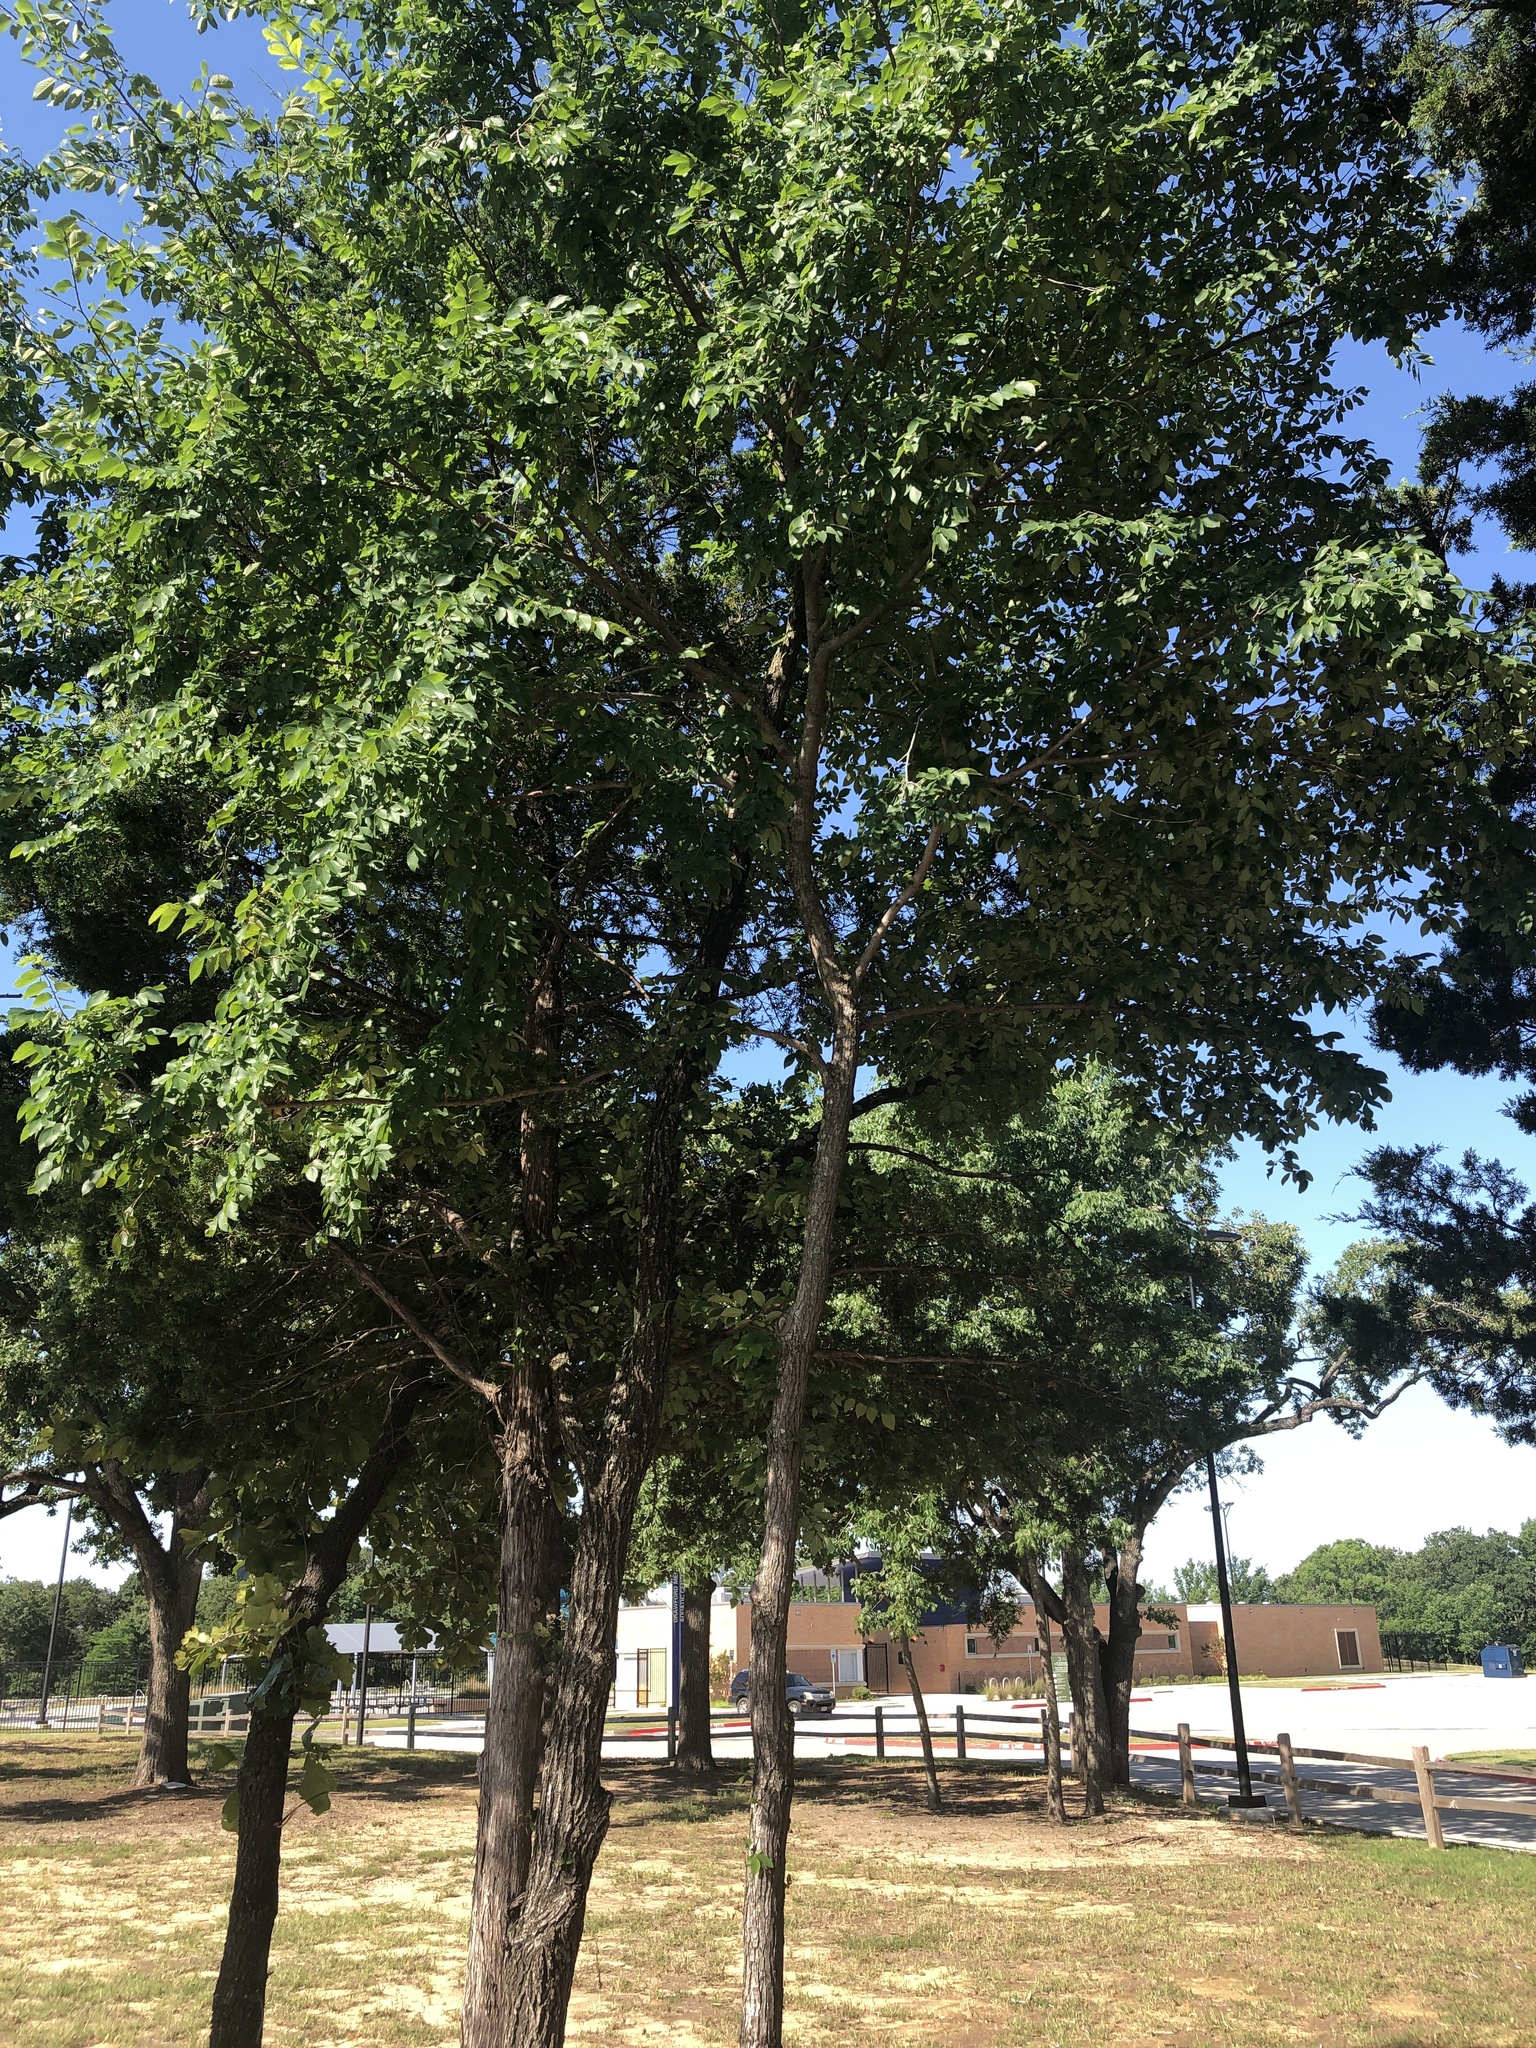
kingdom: Plantae
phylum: Tracheophyta
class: Magnoliopsida
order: Rosales
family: Ulmaceae
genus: Ulmus
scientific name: Ulmus crassifolia
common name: Basket elm
